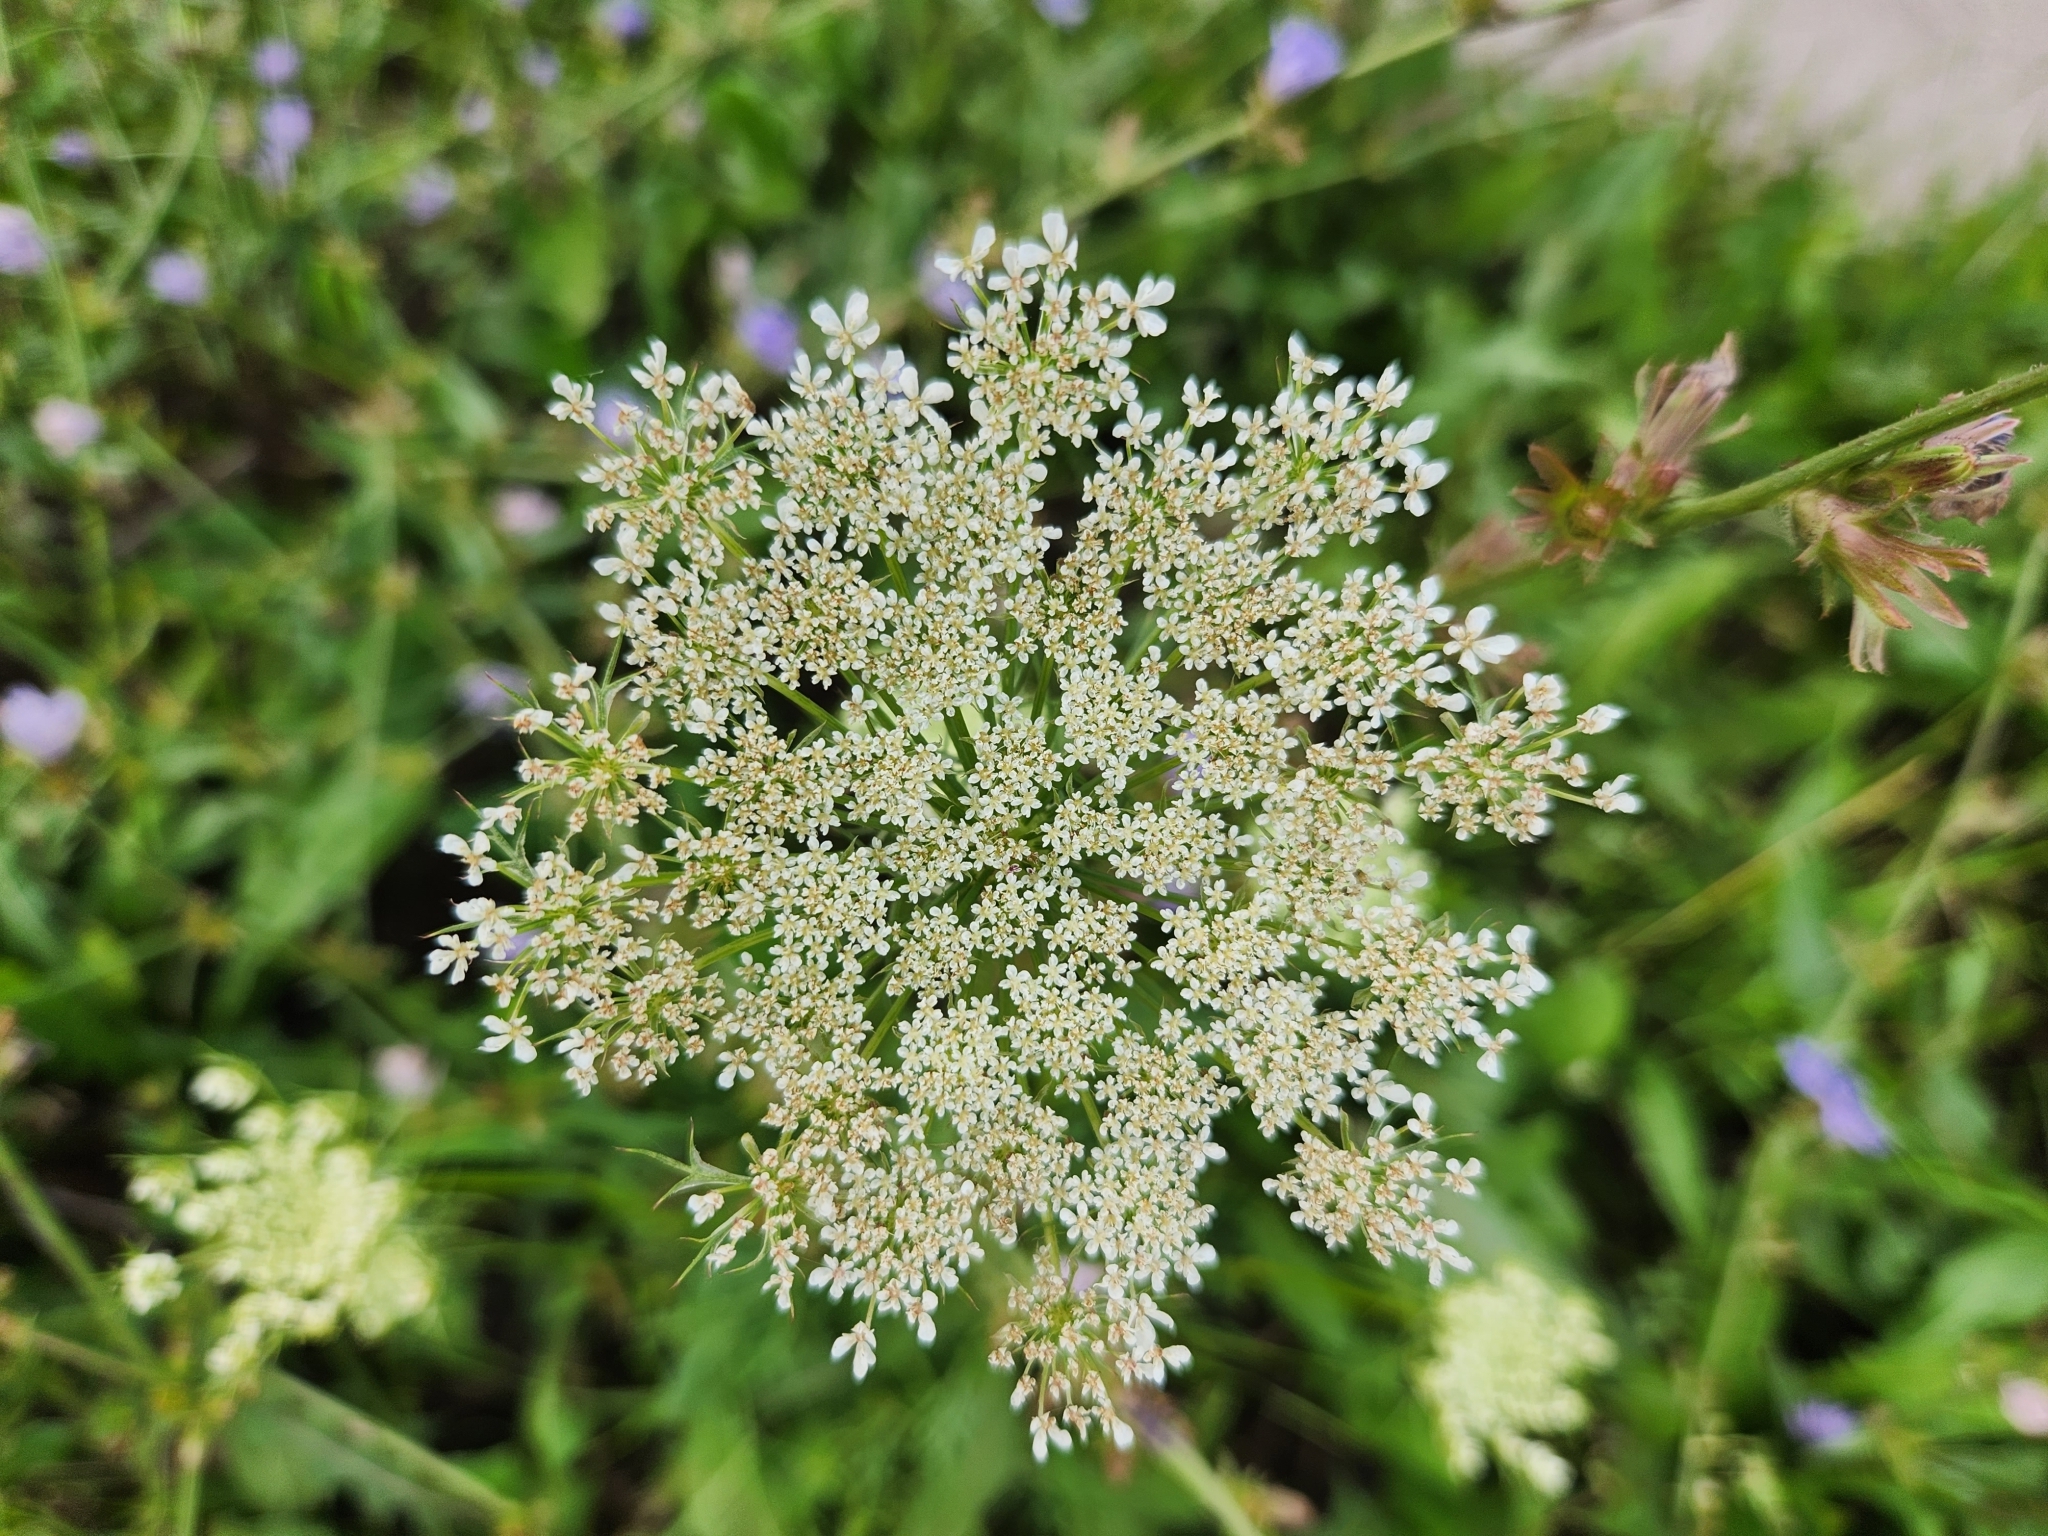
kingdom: Plantae
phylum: Tracheophyta
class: Magnoliopsida
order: Apiales
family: Apiaceae
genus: Daucus
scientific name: Daucus carota
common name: Wild carrot
